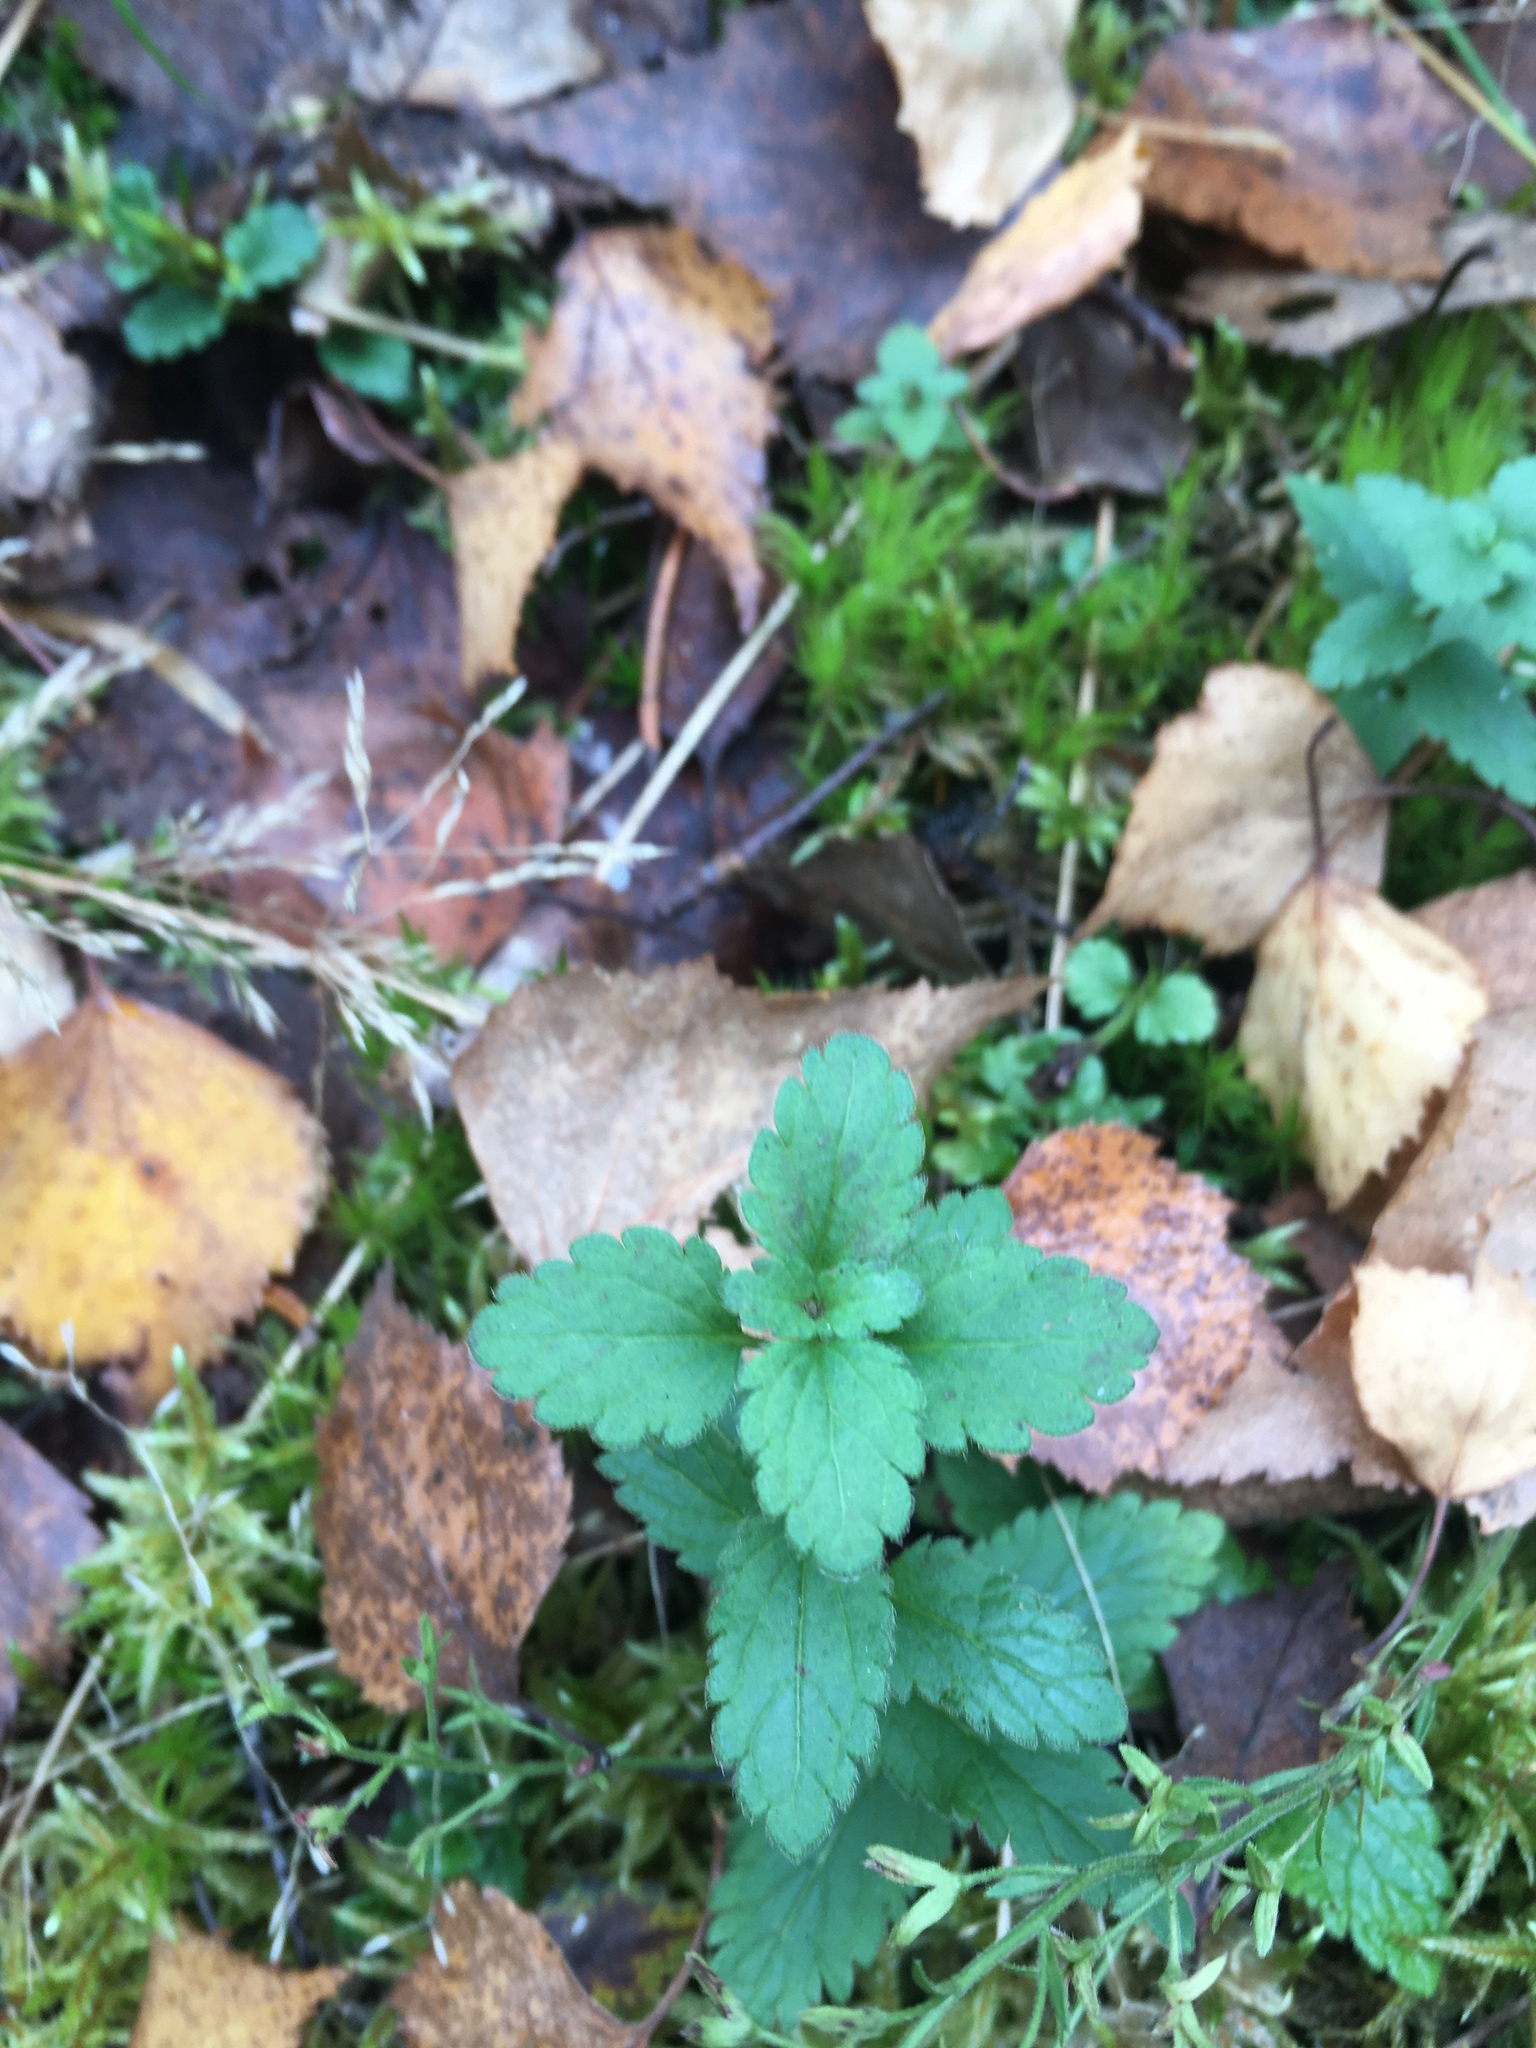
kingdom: Plantae
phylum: Tracheophyta
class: Magnoliopsida
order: Lamiales
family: Plantaginaceae
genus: Veronica
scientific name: Veronica chamaedrys
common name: Germander speedwell
